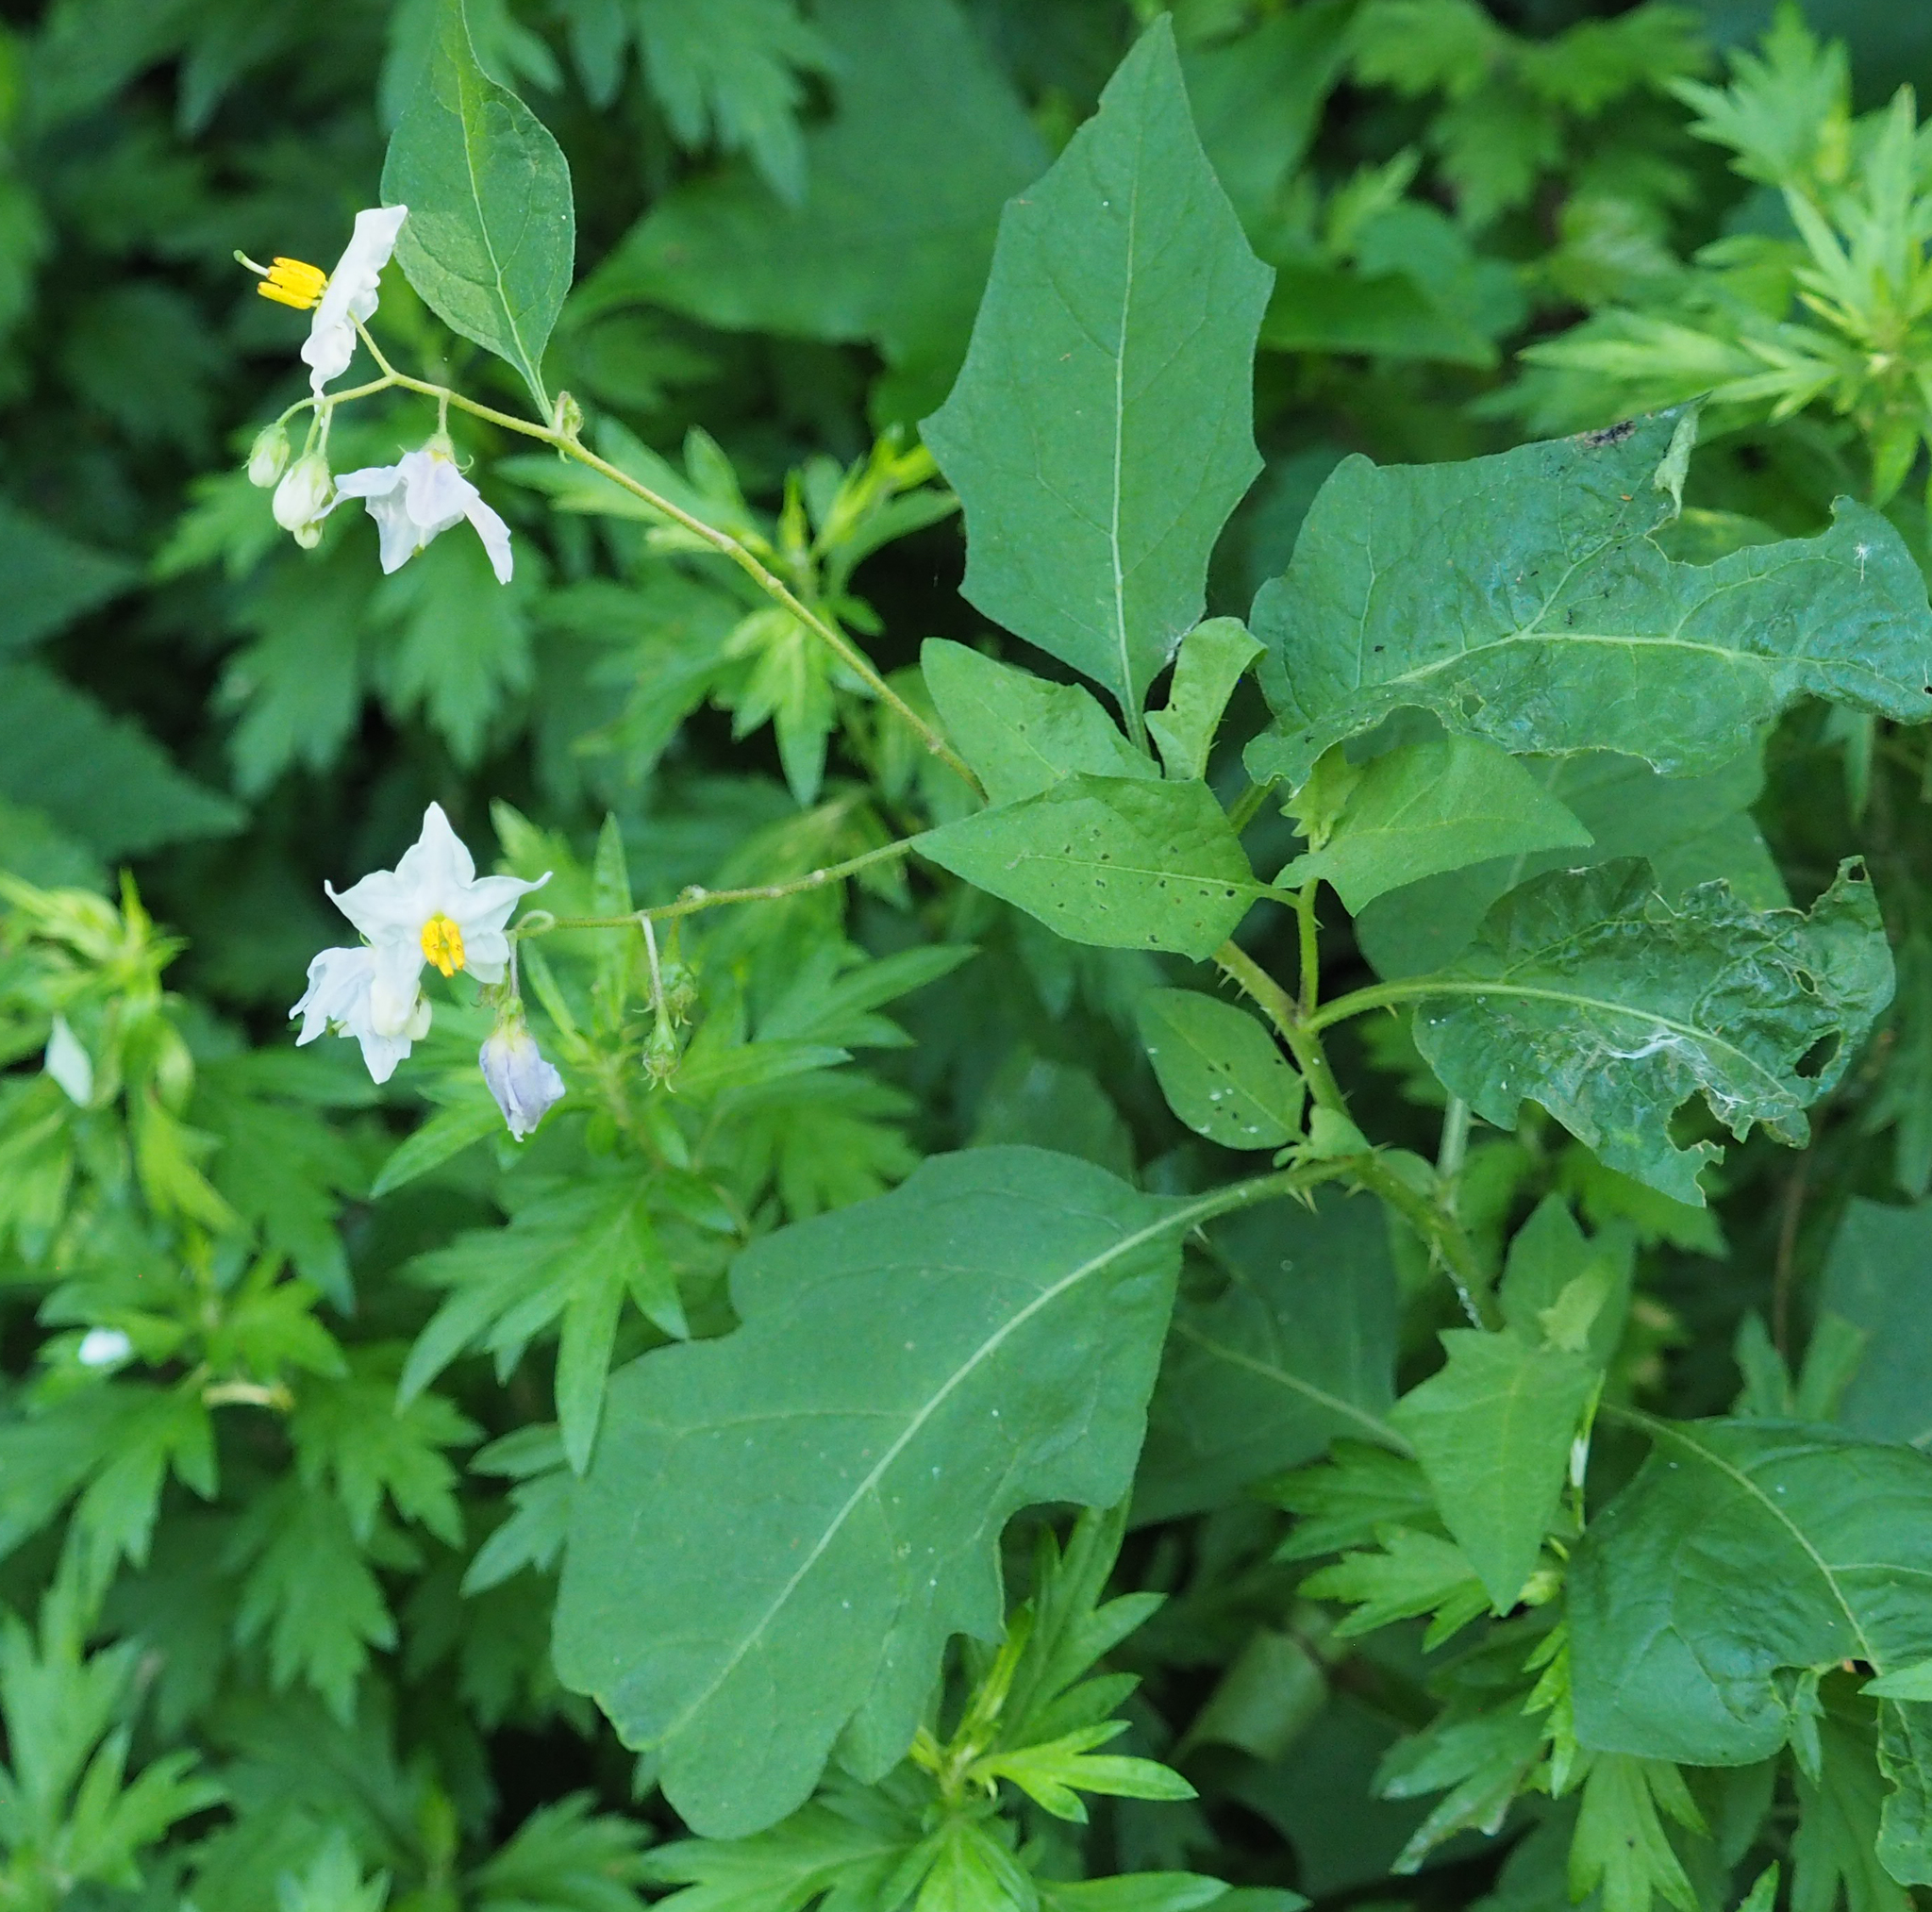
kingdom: Plantae
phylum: Tracheophyta
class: Magnoliopsida
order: Solanales
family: Solanaceae
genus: Solanum
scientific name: Solanum carolinense
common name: Horse-nettle
